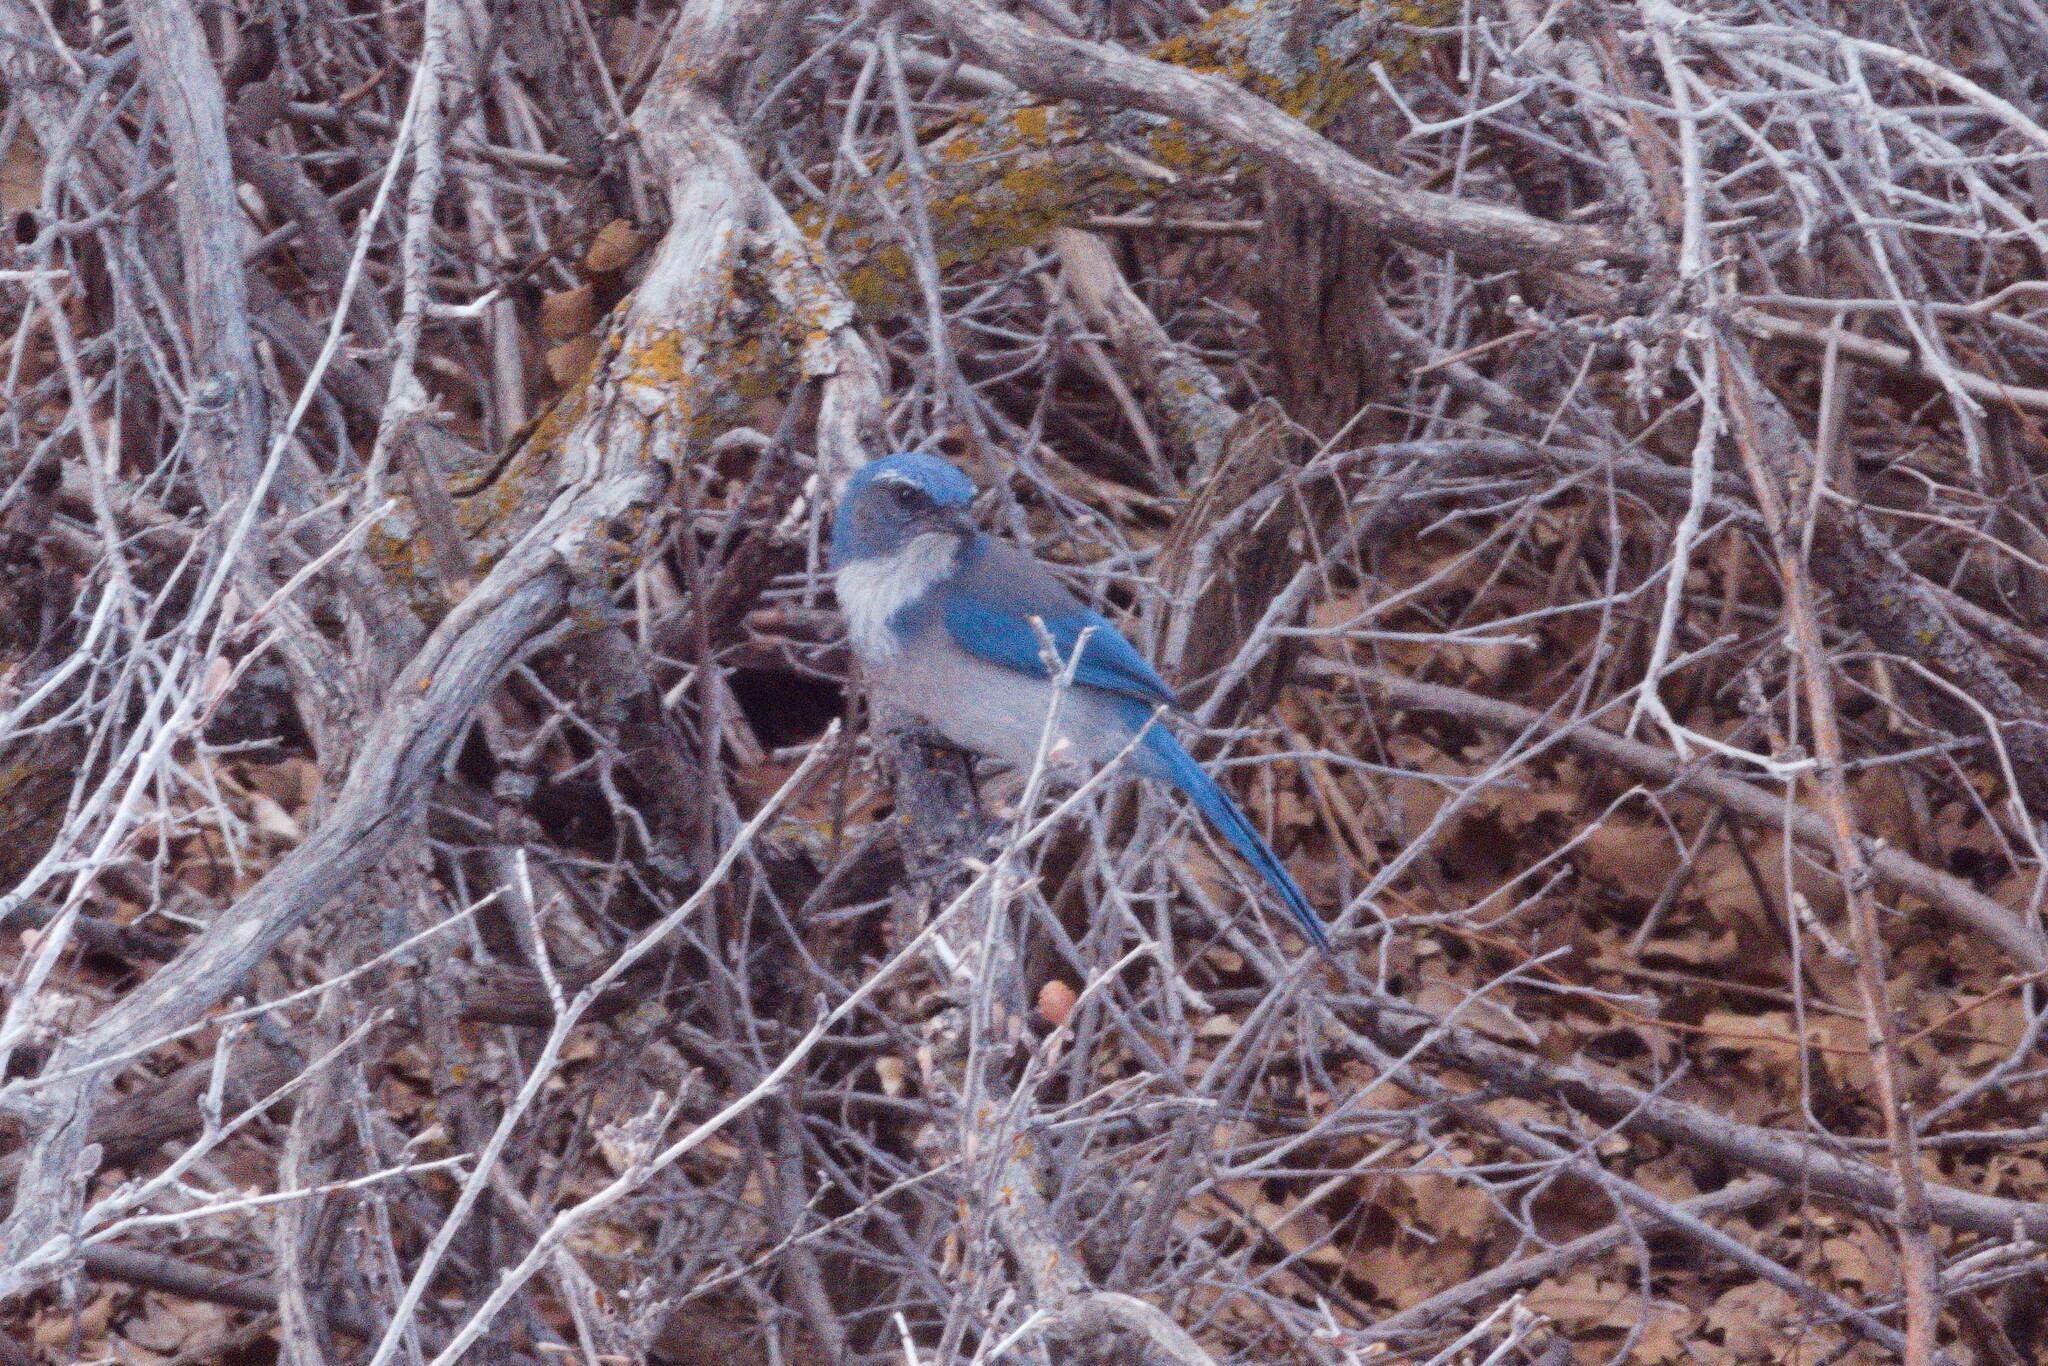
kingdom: Animalia
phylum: Chordata
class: Aves
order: Passeriformes
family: Corvidae
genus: Aphelocoma
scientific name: Aphelocoma woodhouseii
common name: Woodhouse's scrub-jay
